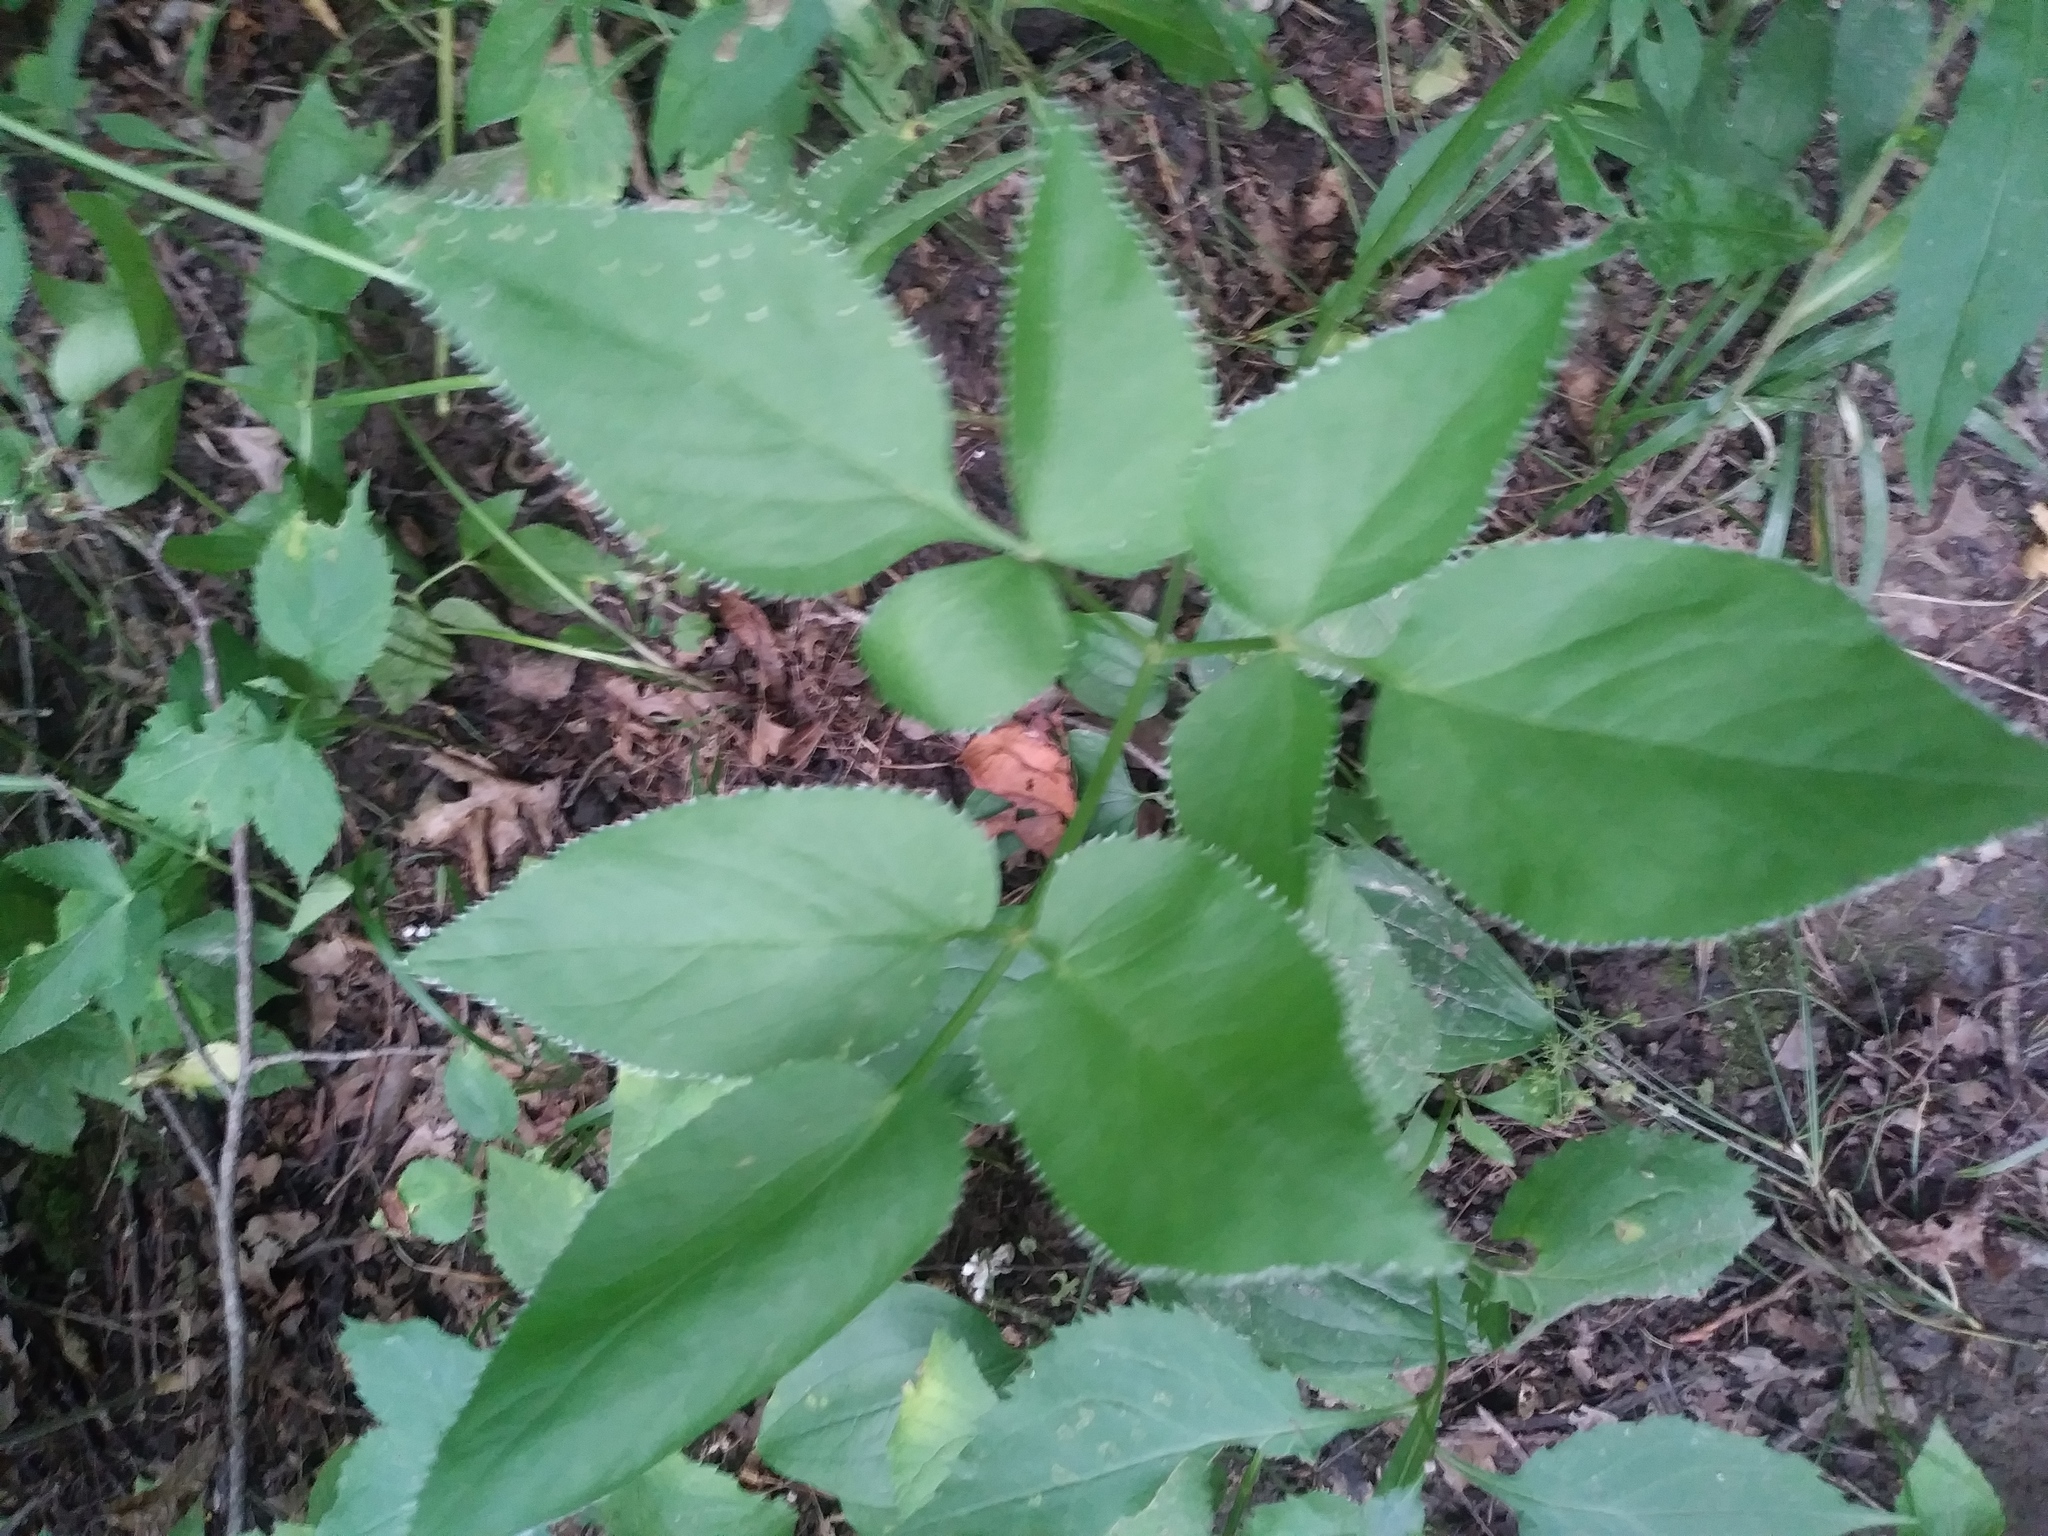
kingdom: Plantae
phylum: Tracheophyta
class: Magnoliopsida
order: Apiales
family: Apiaceae
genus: Zizia
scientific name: Zizia aurea
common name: Golden alexanders
